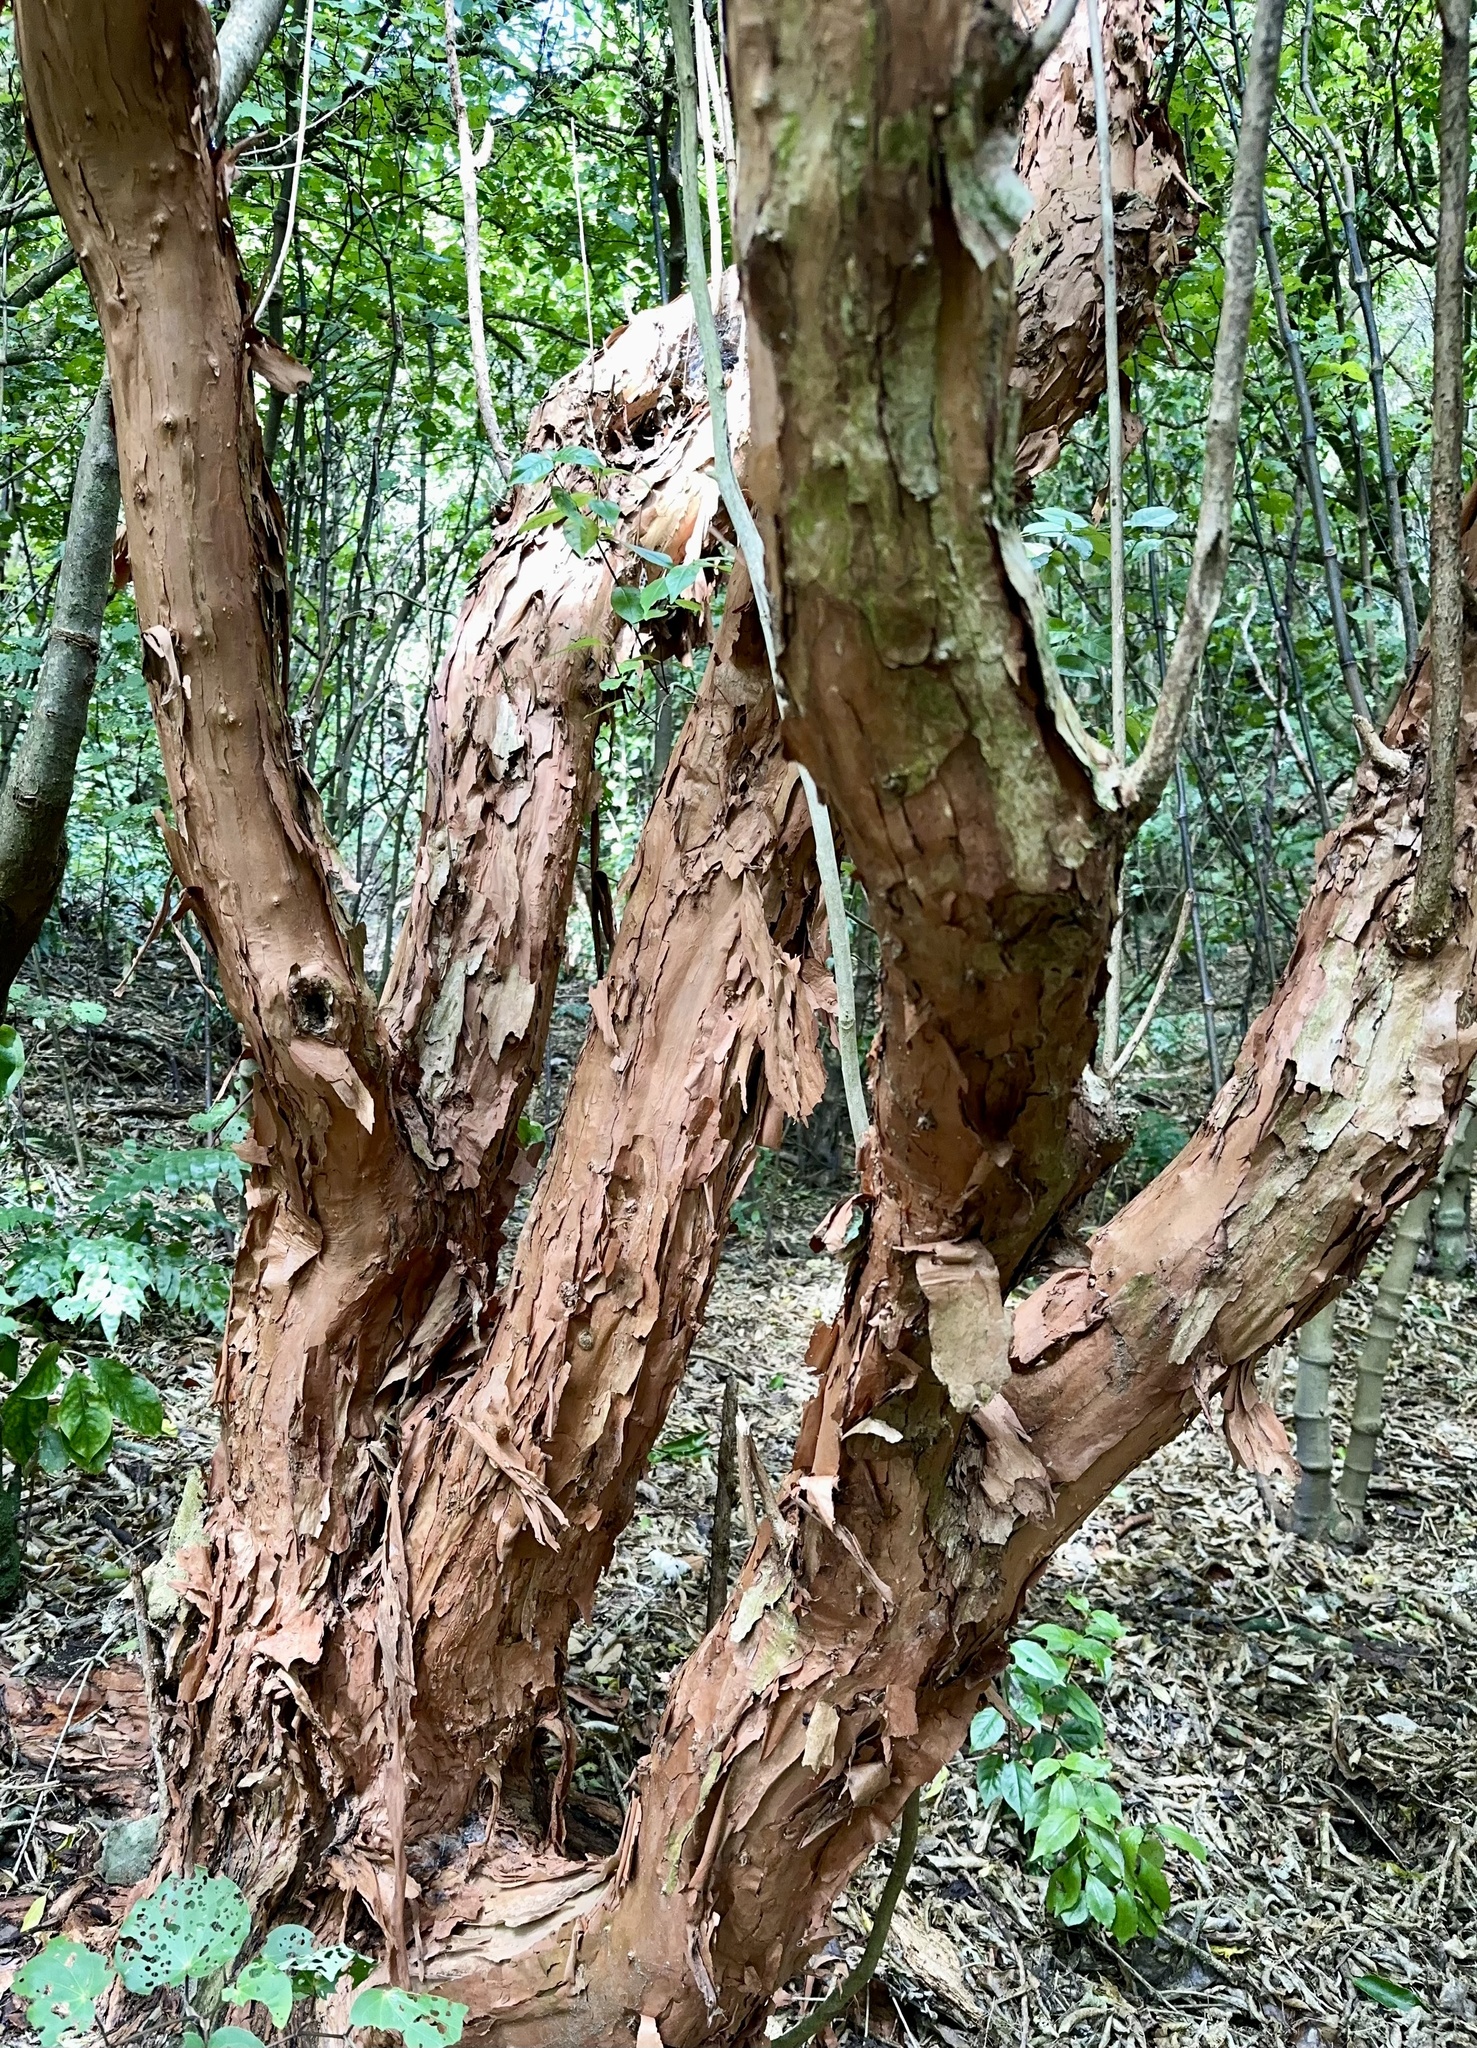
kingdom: Plantae
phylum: Tracheophyta
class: Magnoliopsida
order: Myrtales
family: Onagraceae
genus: Fuchsia
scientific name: Fuchsia excorticata
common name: Tree fuchsia
